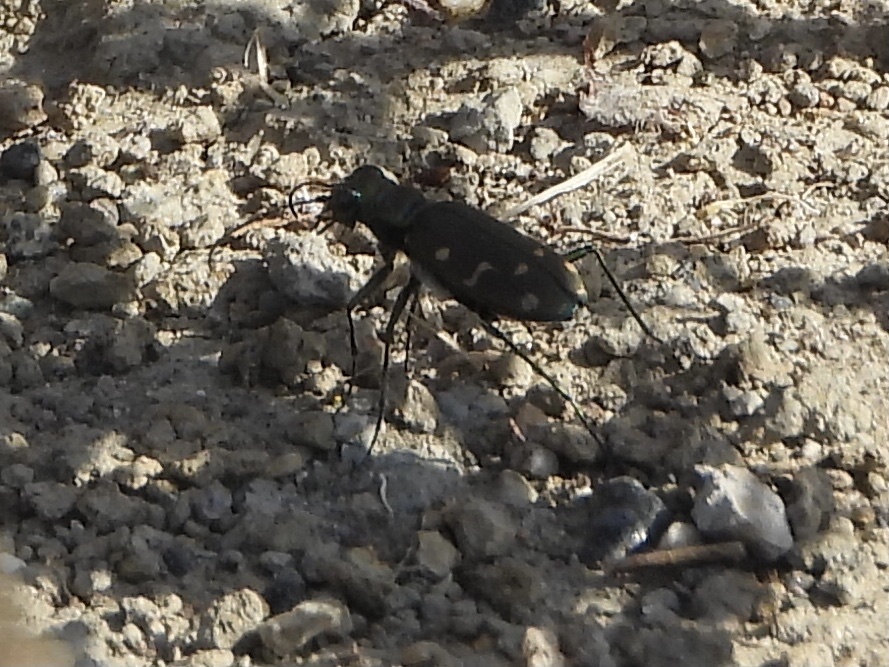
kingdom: Animalia
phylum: Arthropoda
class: Insecta
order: Coleoptera
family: Carabidae
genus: Cicindela
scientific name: Cicindela oregona
